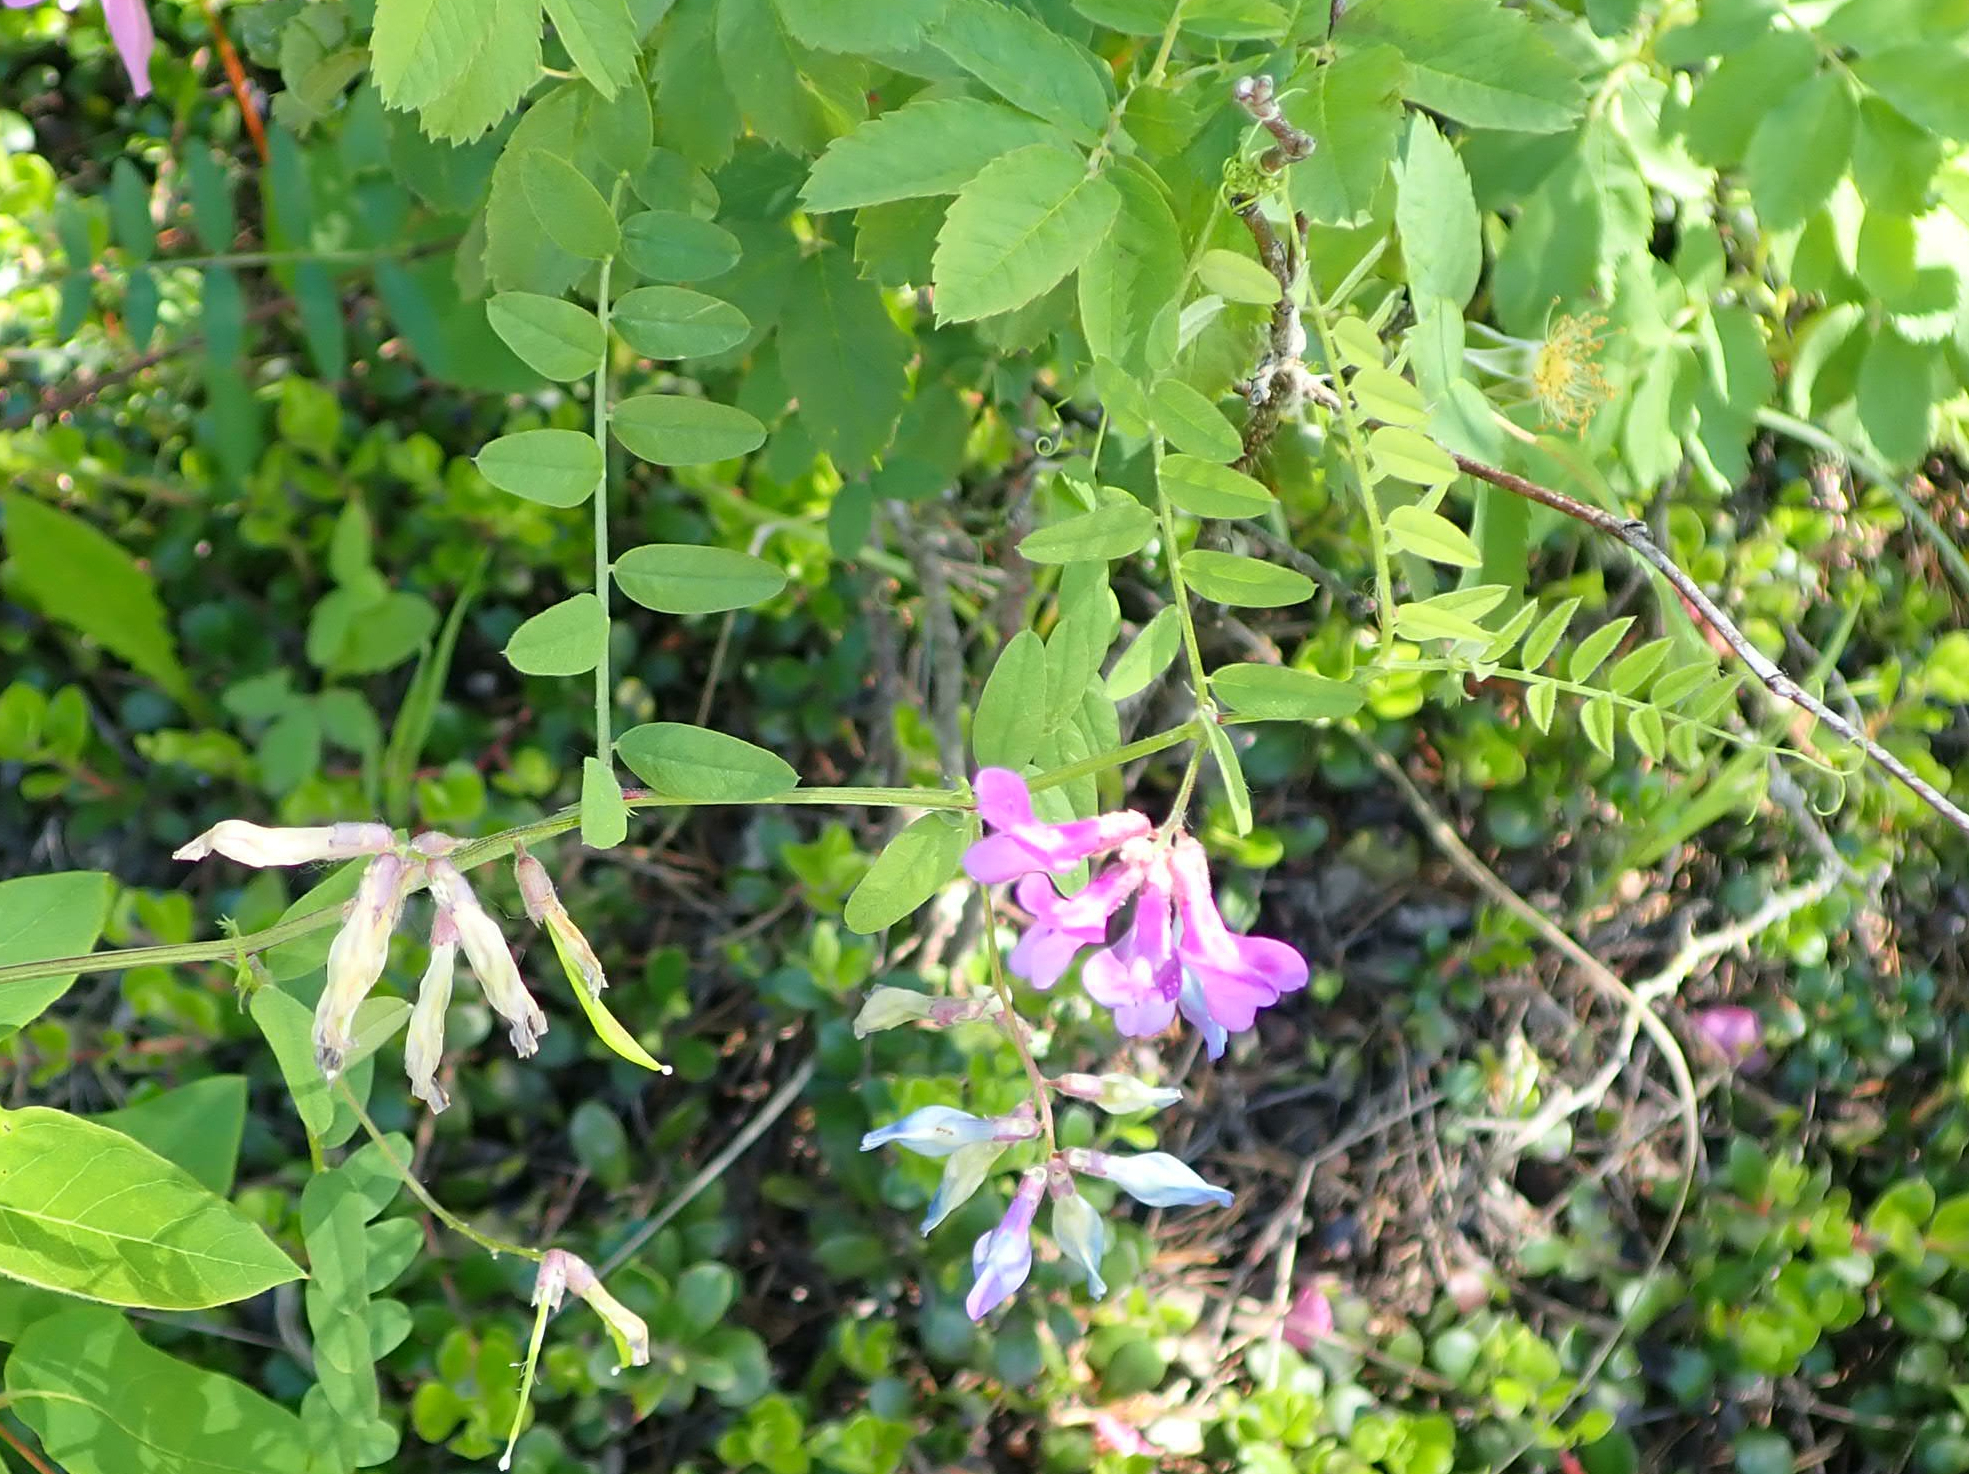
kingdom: Plantae
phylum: Tracheophyta
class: Magnoliopsida
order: Fabales
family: Fabaceae
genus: Vicia
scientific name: Vicia americana
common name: American vetch
